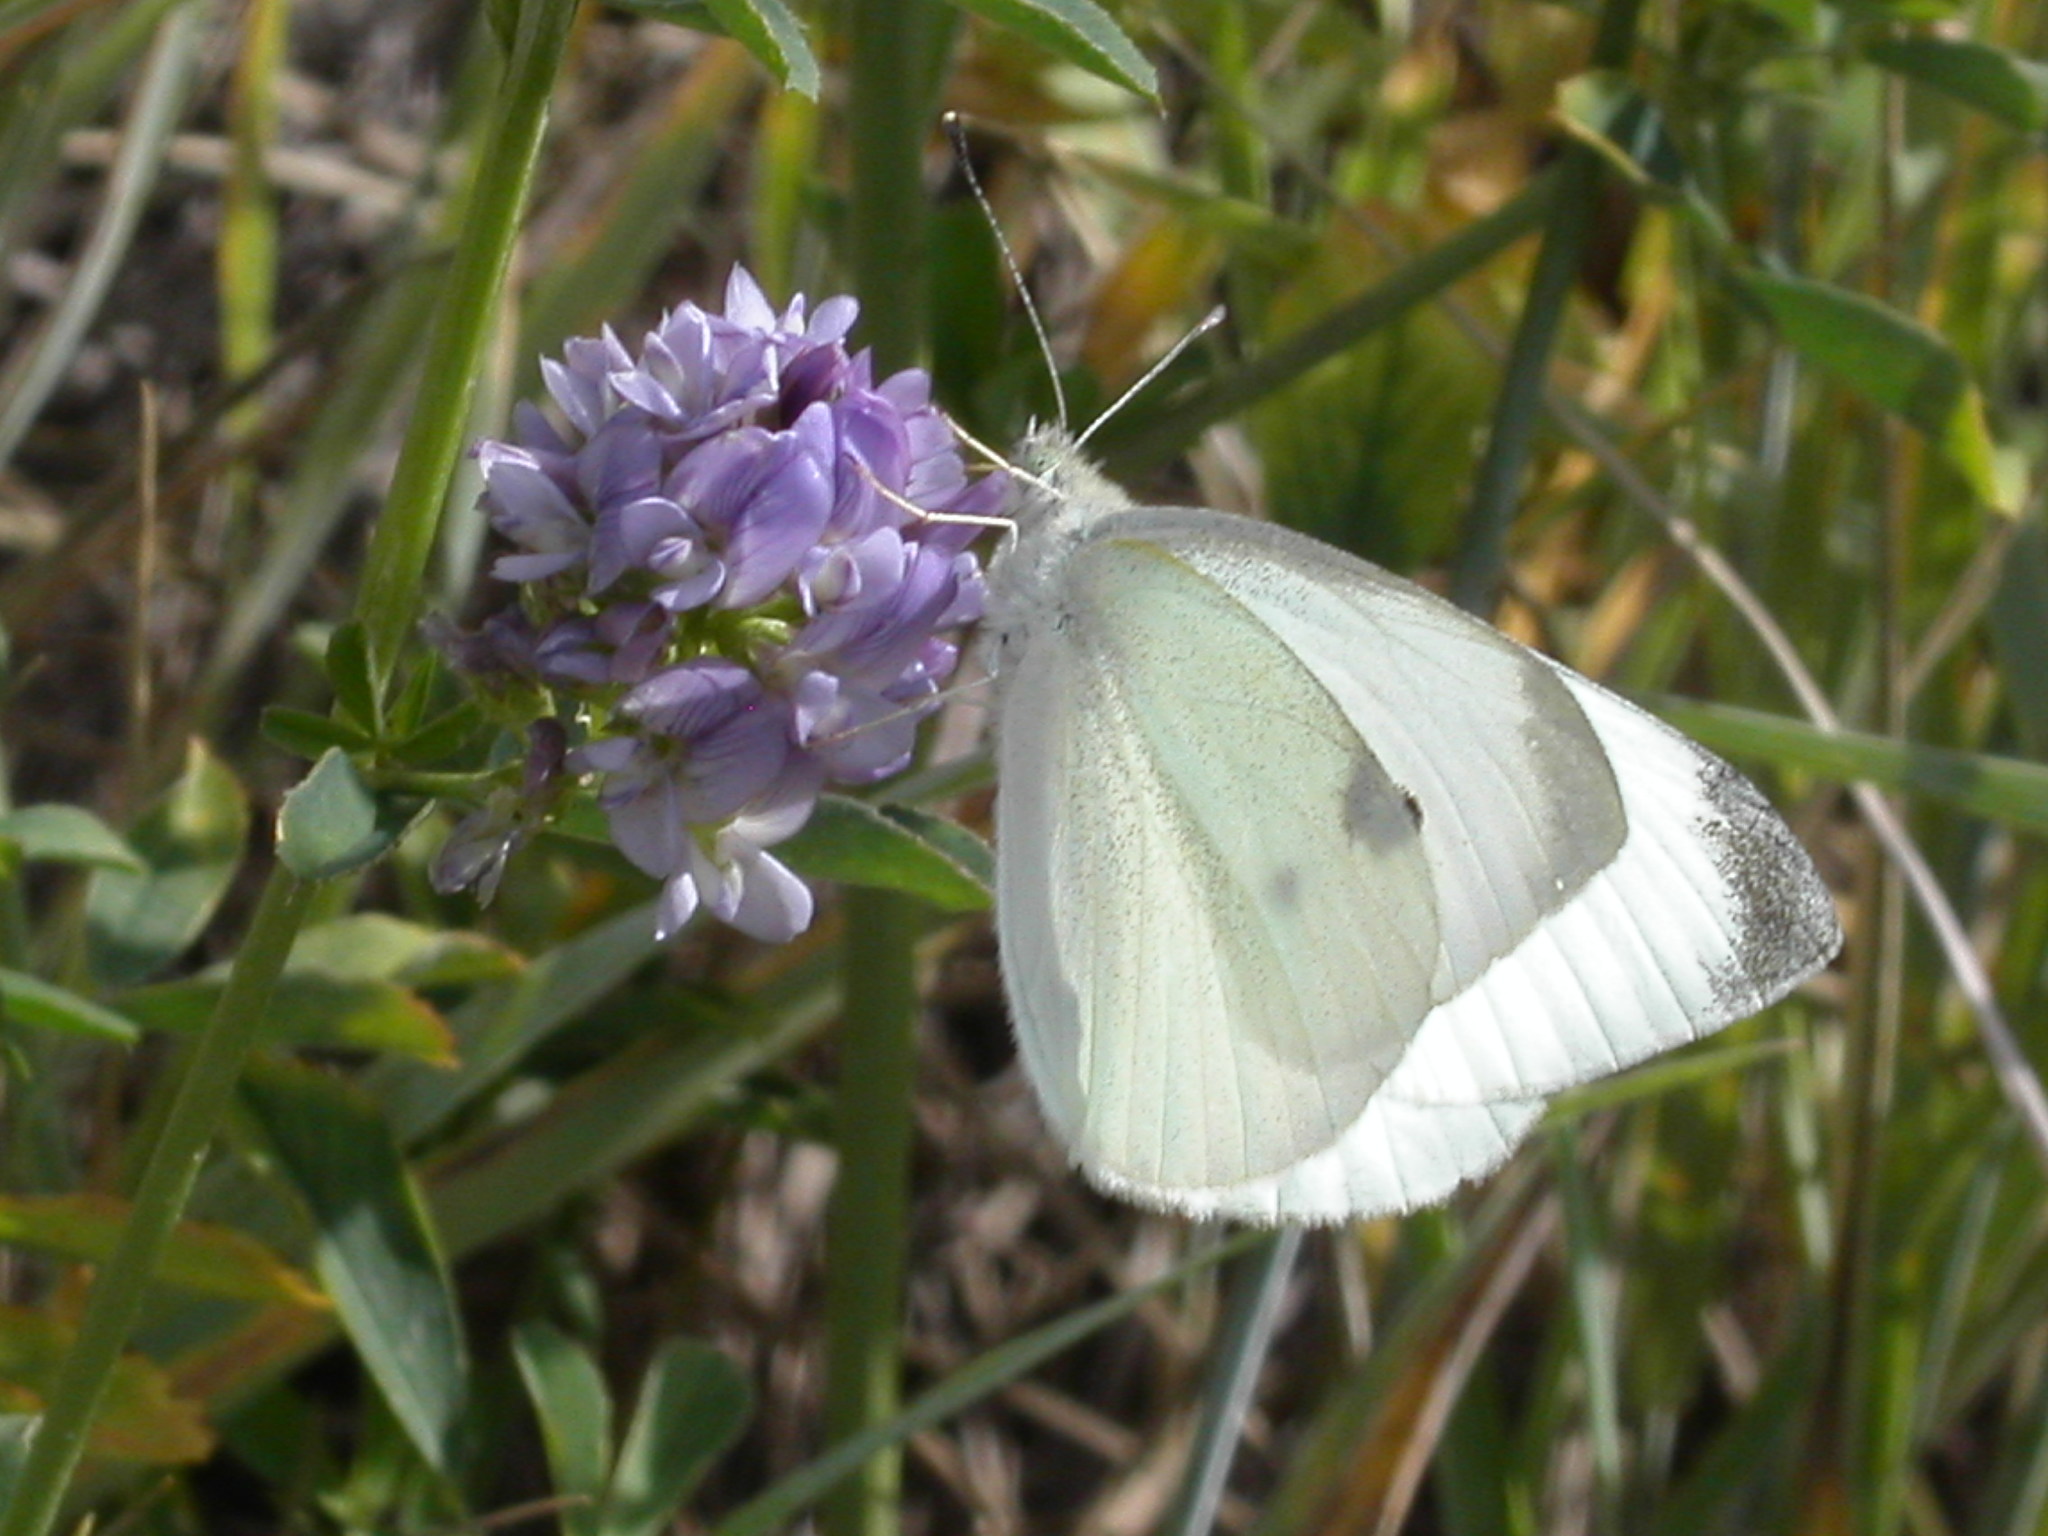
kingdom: Animalia
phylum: Arthropoda
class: Insecta
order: Lepidoptera
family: Pieridae
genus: Pieris
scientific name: Pieris rapae
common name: Small white
